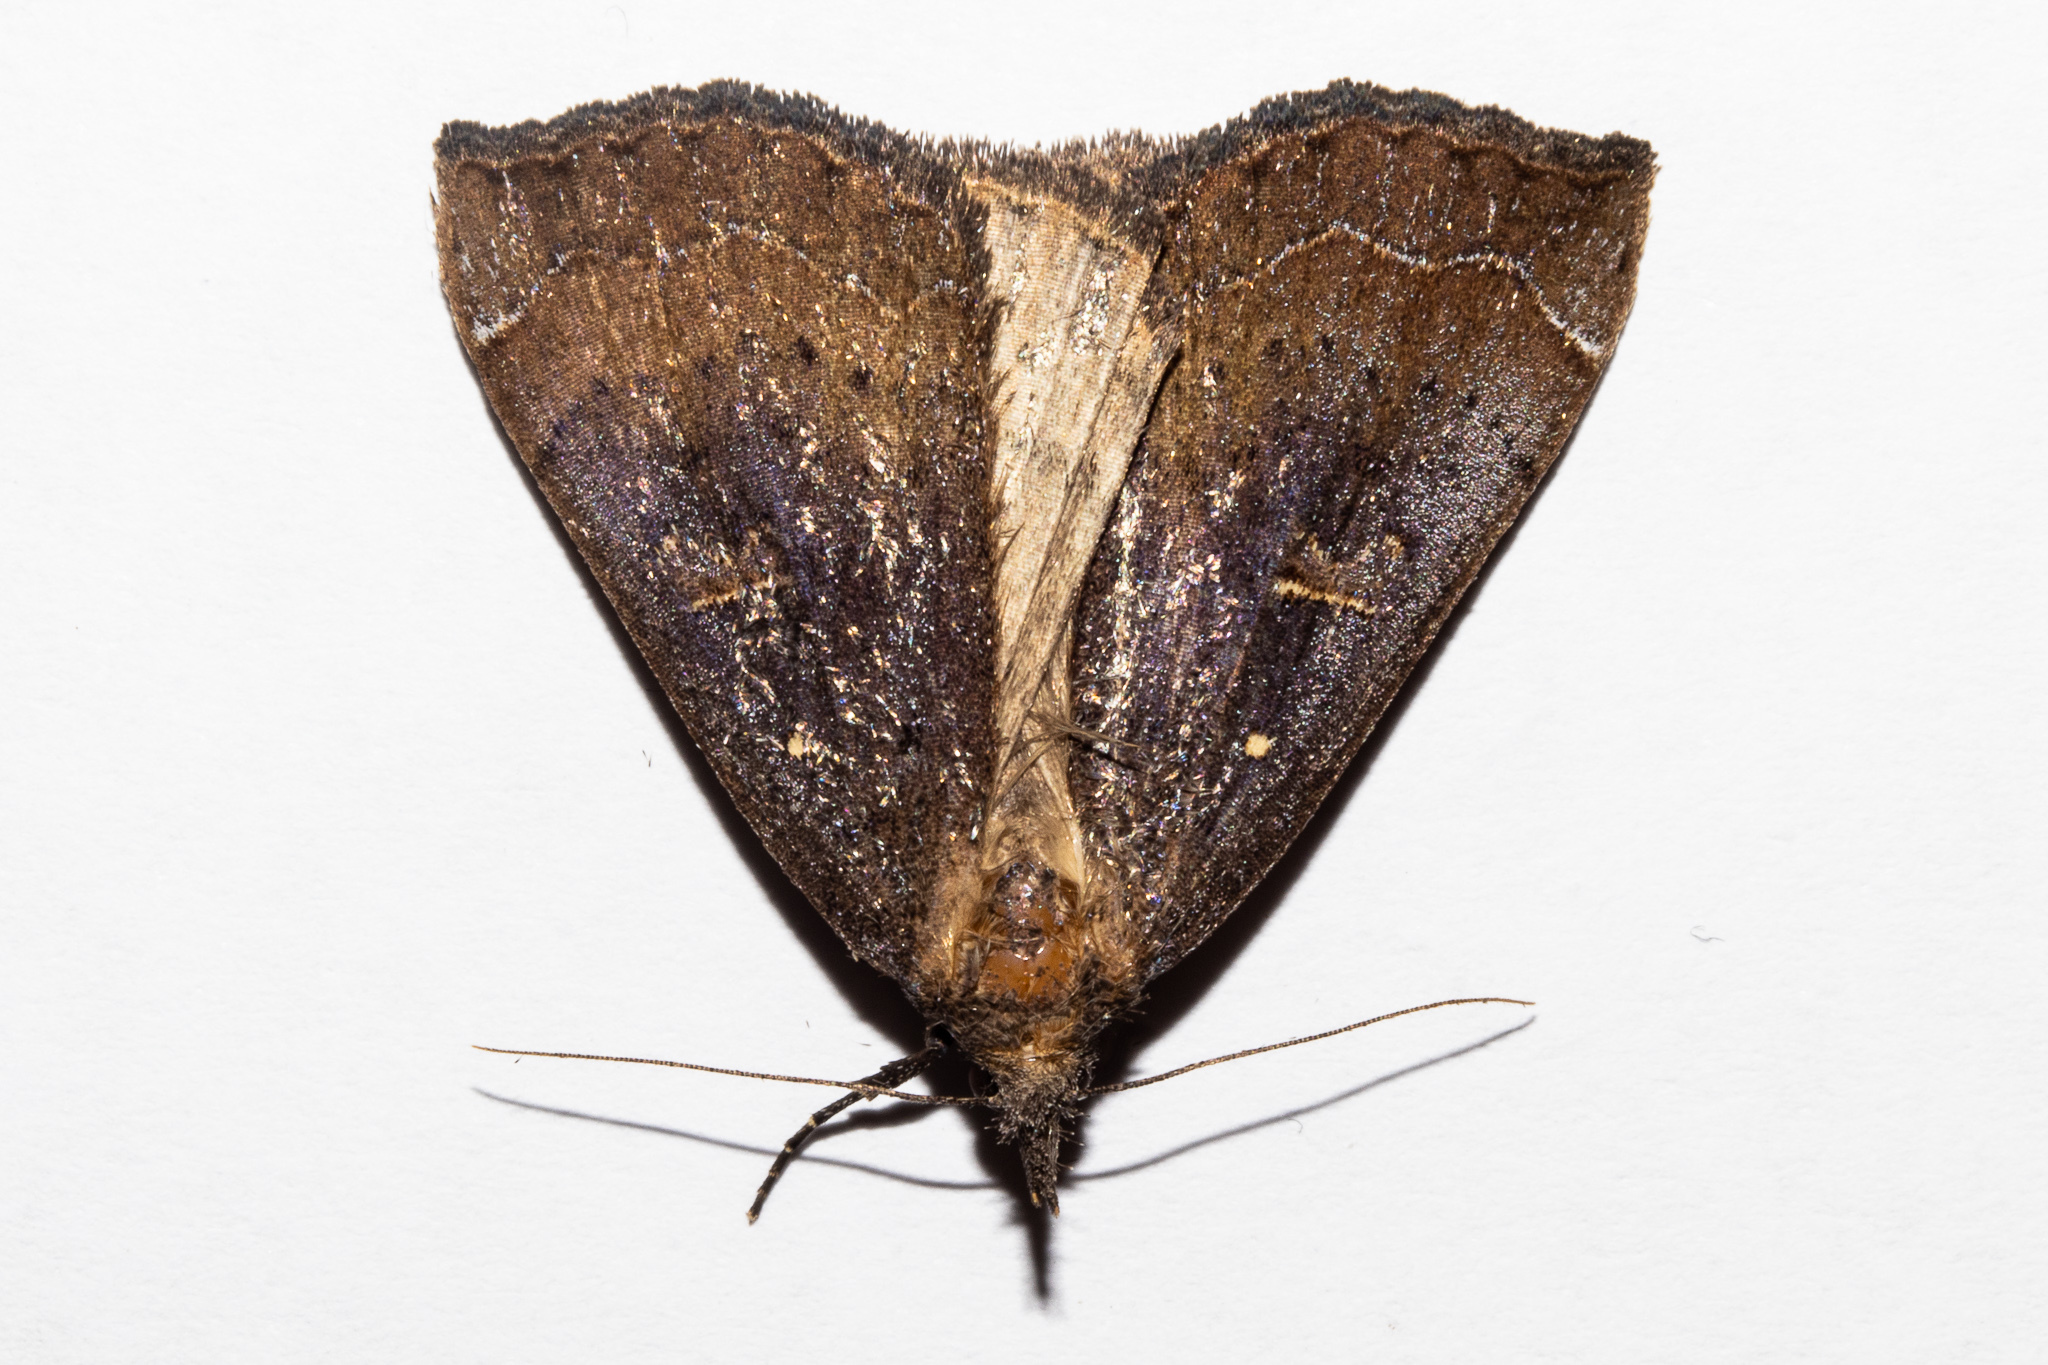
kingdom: Animalia
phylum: Arthropoda
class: Insecta
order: Lepidoptera
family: Erebidae
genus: Rhapsa
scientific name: Rhapsa scotosialis
